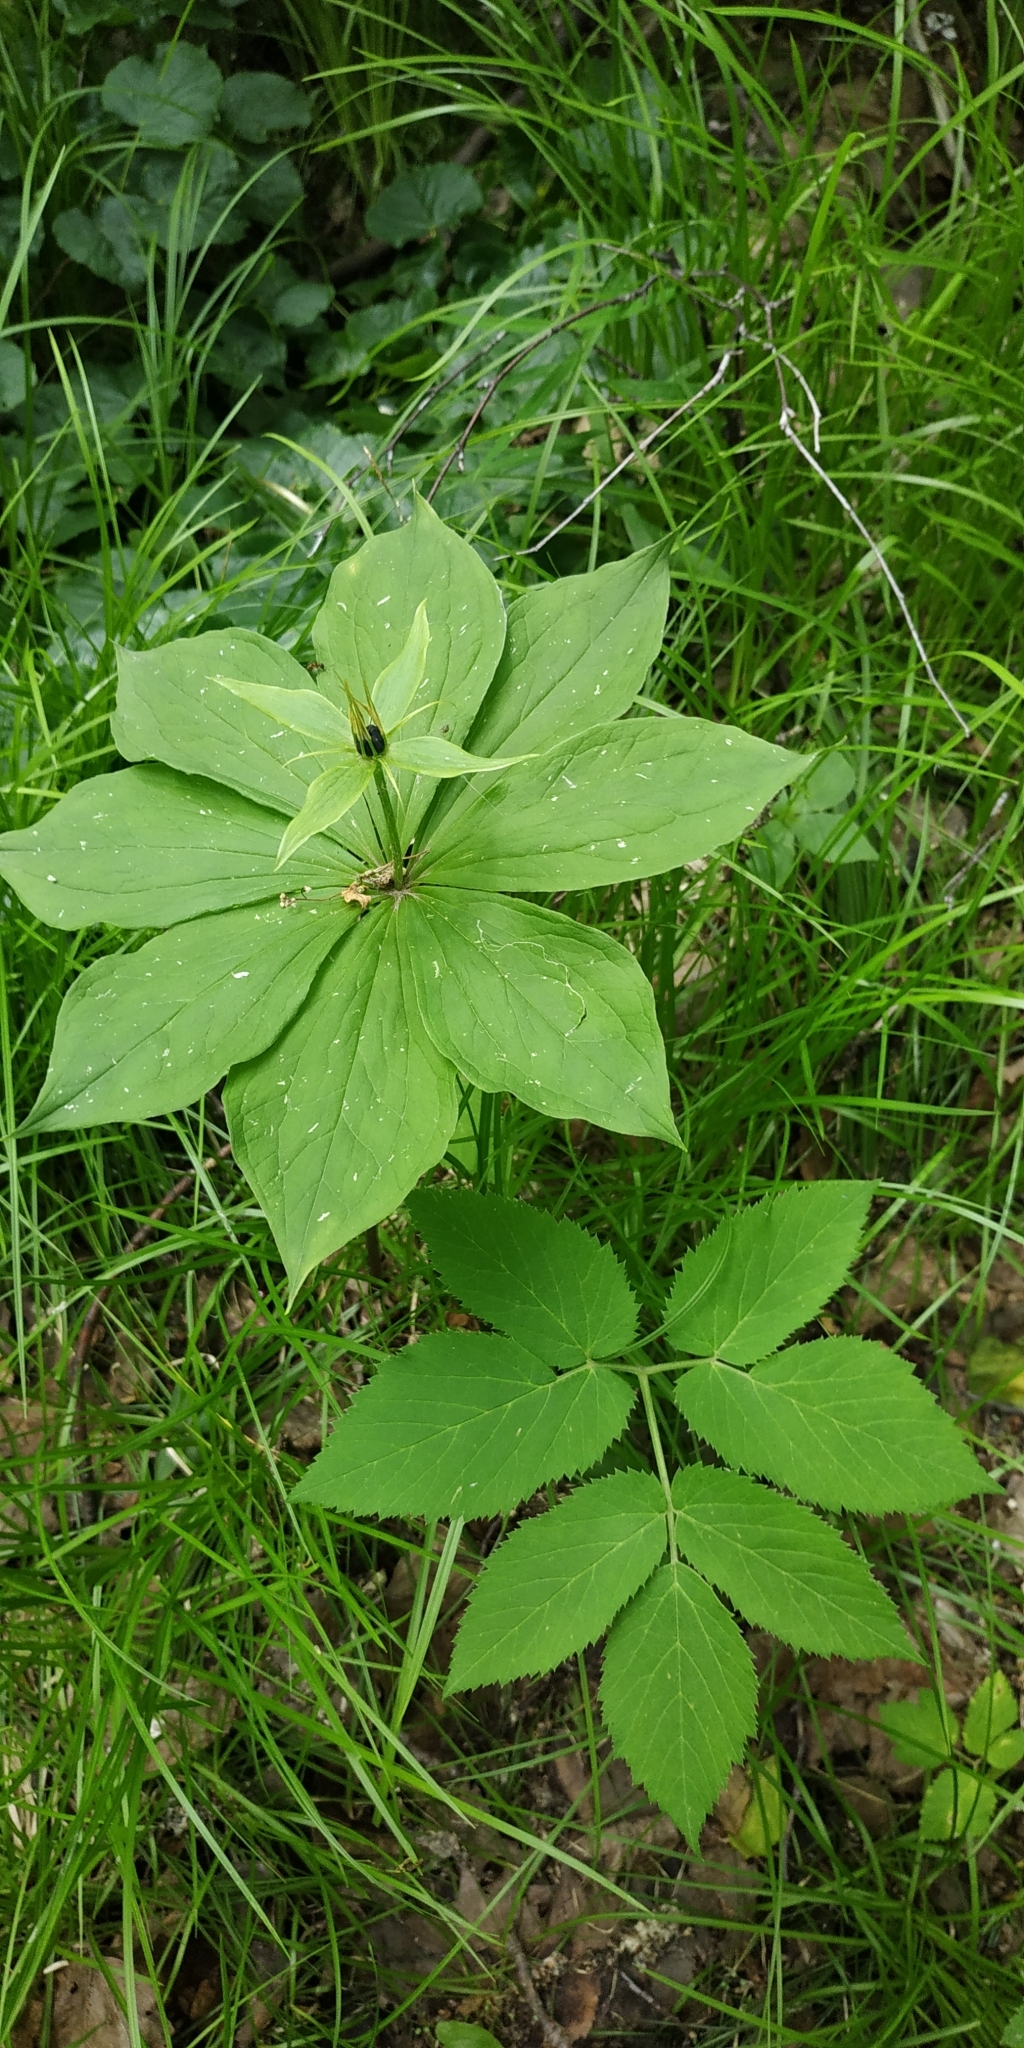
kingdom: Plantae
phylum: Tracheophyta
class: Liliopsida
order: Liliales
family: Melanthiaceae
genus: Paris
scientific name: Paris quadrifolia
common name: Herb-paris
